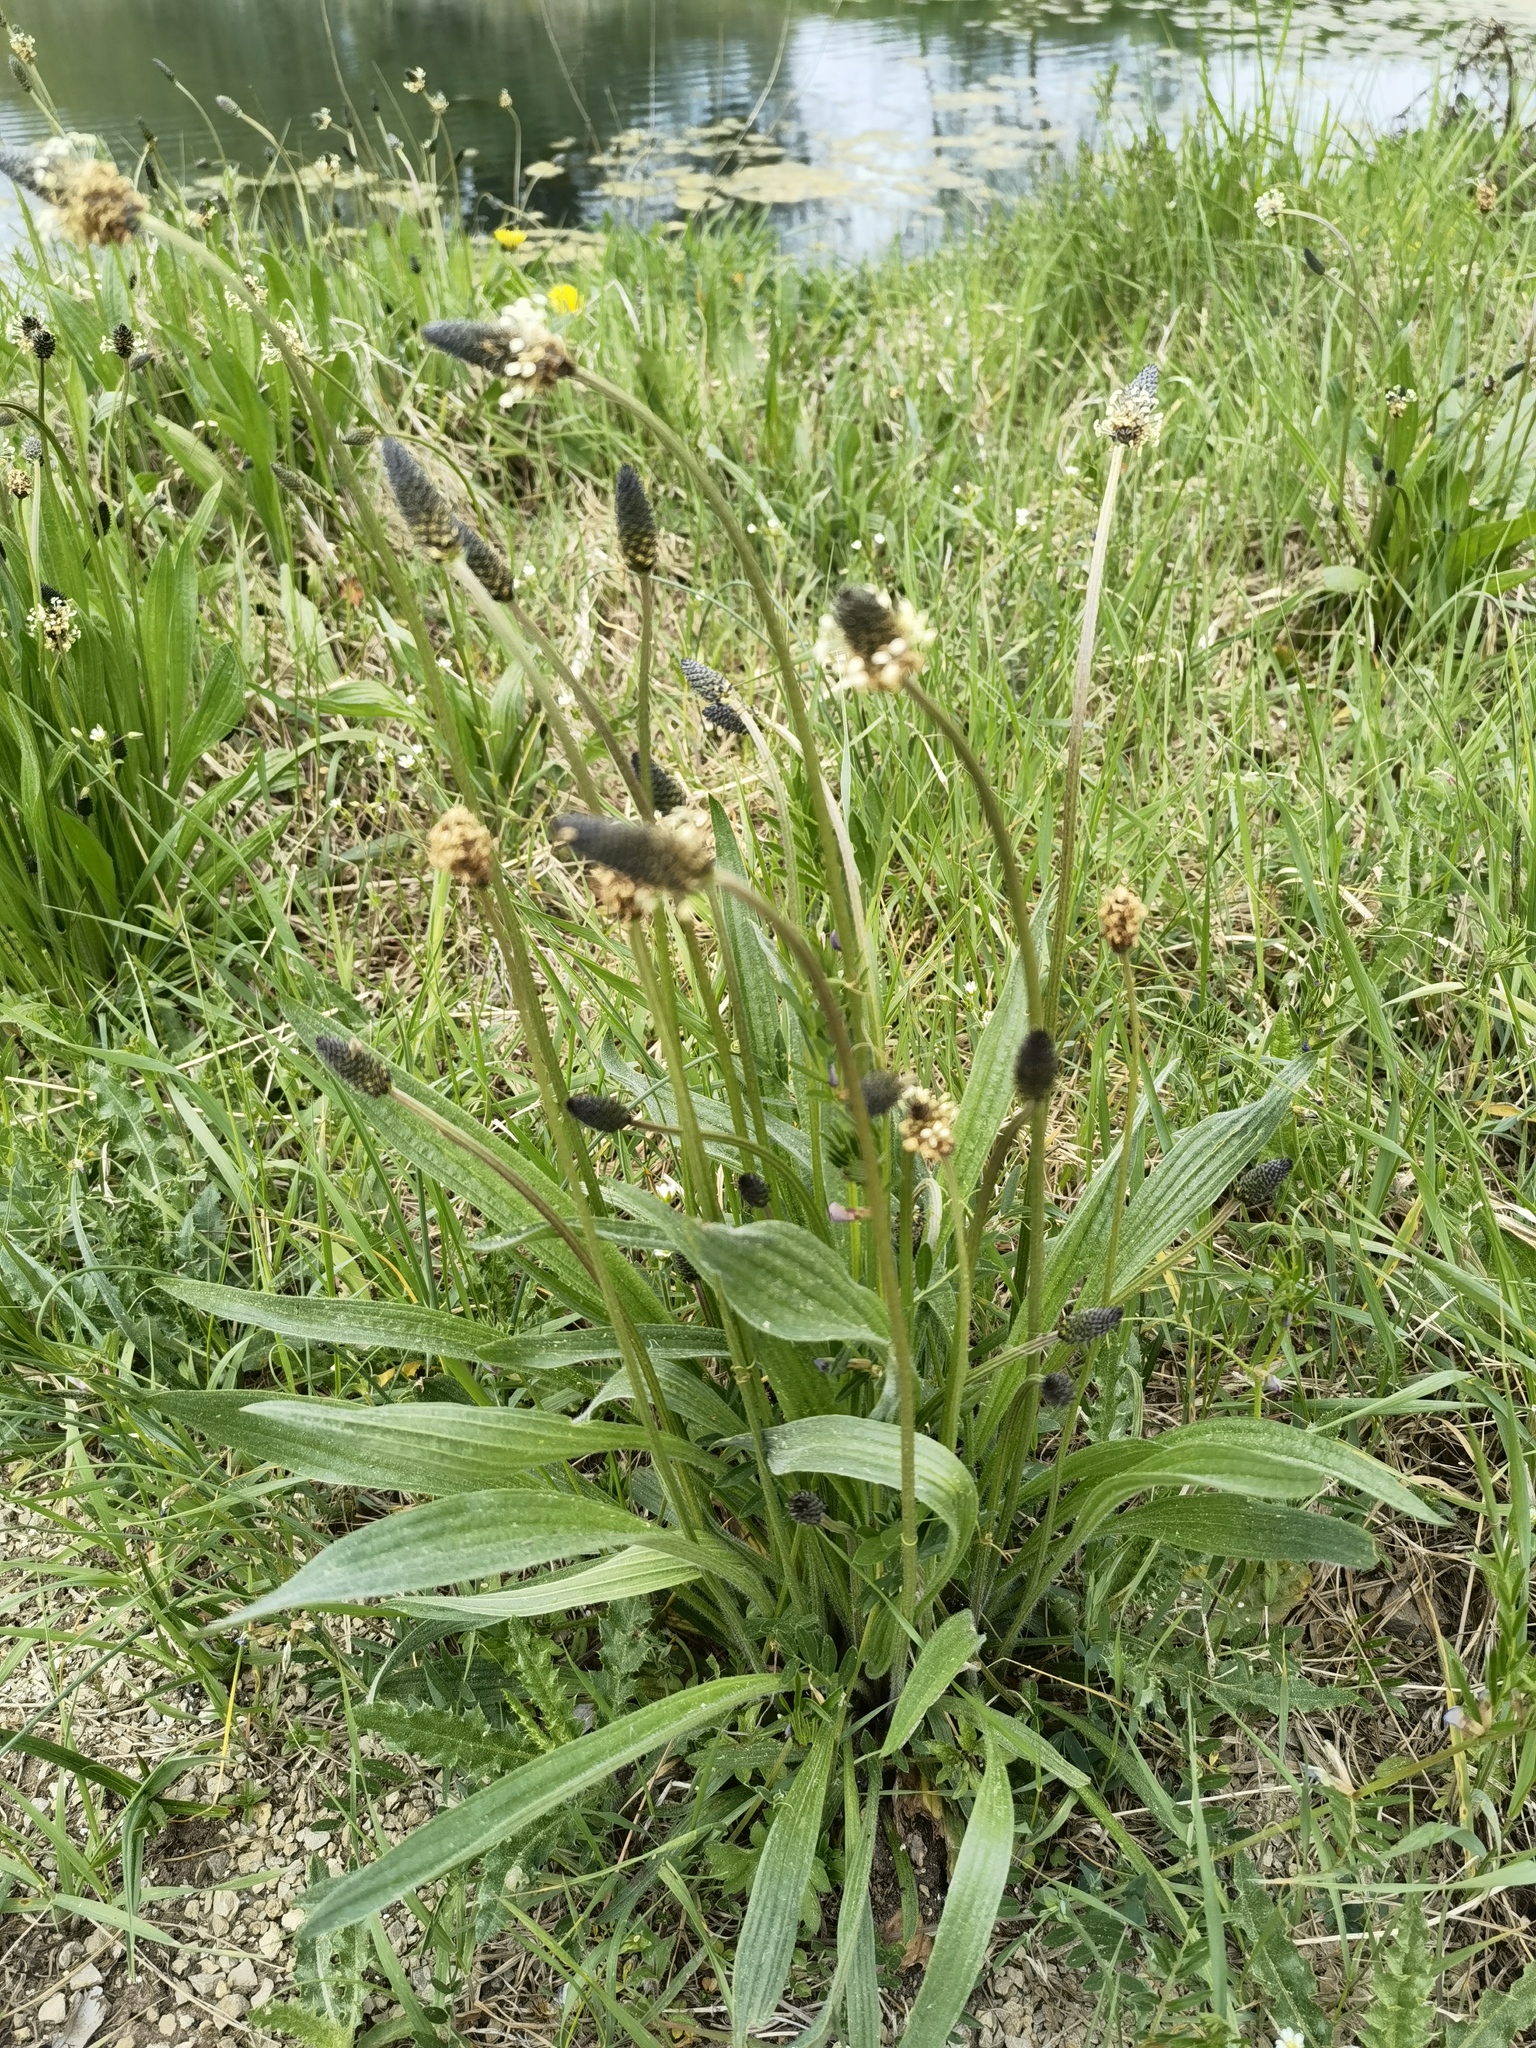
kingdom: Plantae
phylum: Tracheophyta
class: Magnoliopsida
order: Lamiales
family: Plantaginaceae
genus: Plantago
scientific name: Plantago lanceolata
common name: Ribwort plantain
